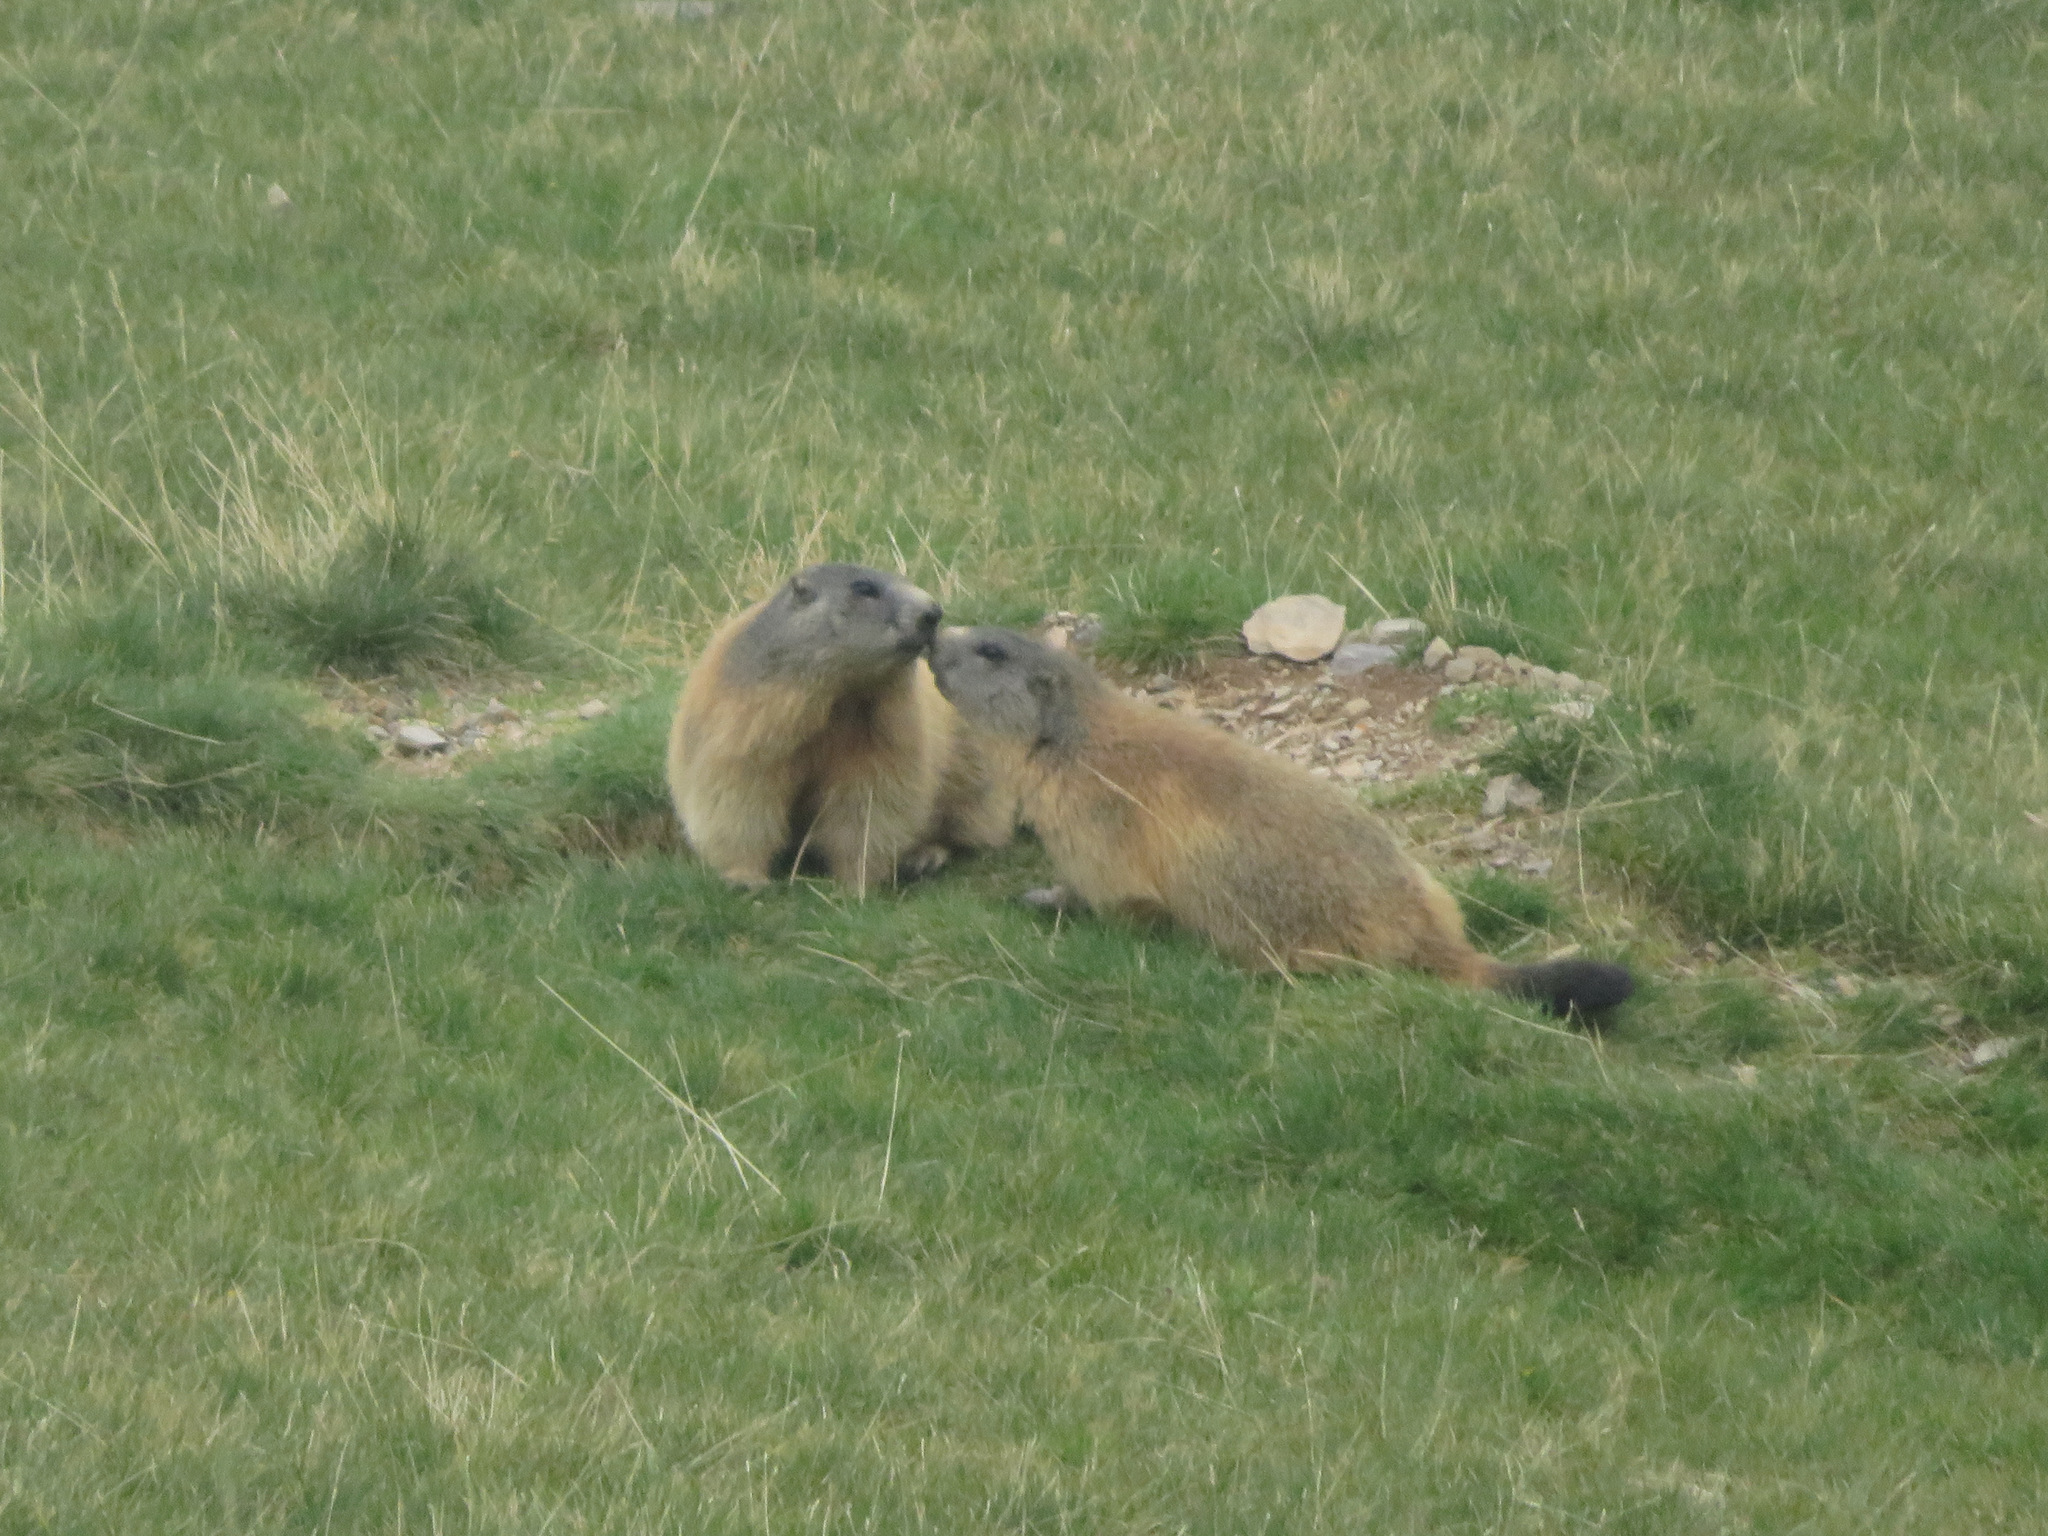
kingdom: Animalia
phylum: Chordata
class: Mammalia
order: Rodentia
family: Sciuridae
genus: Marmota
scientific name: Marmota marmota
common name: Alpine marmot
